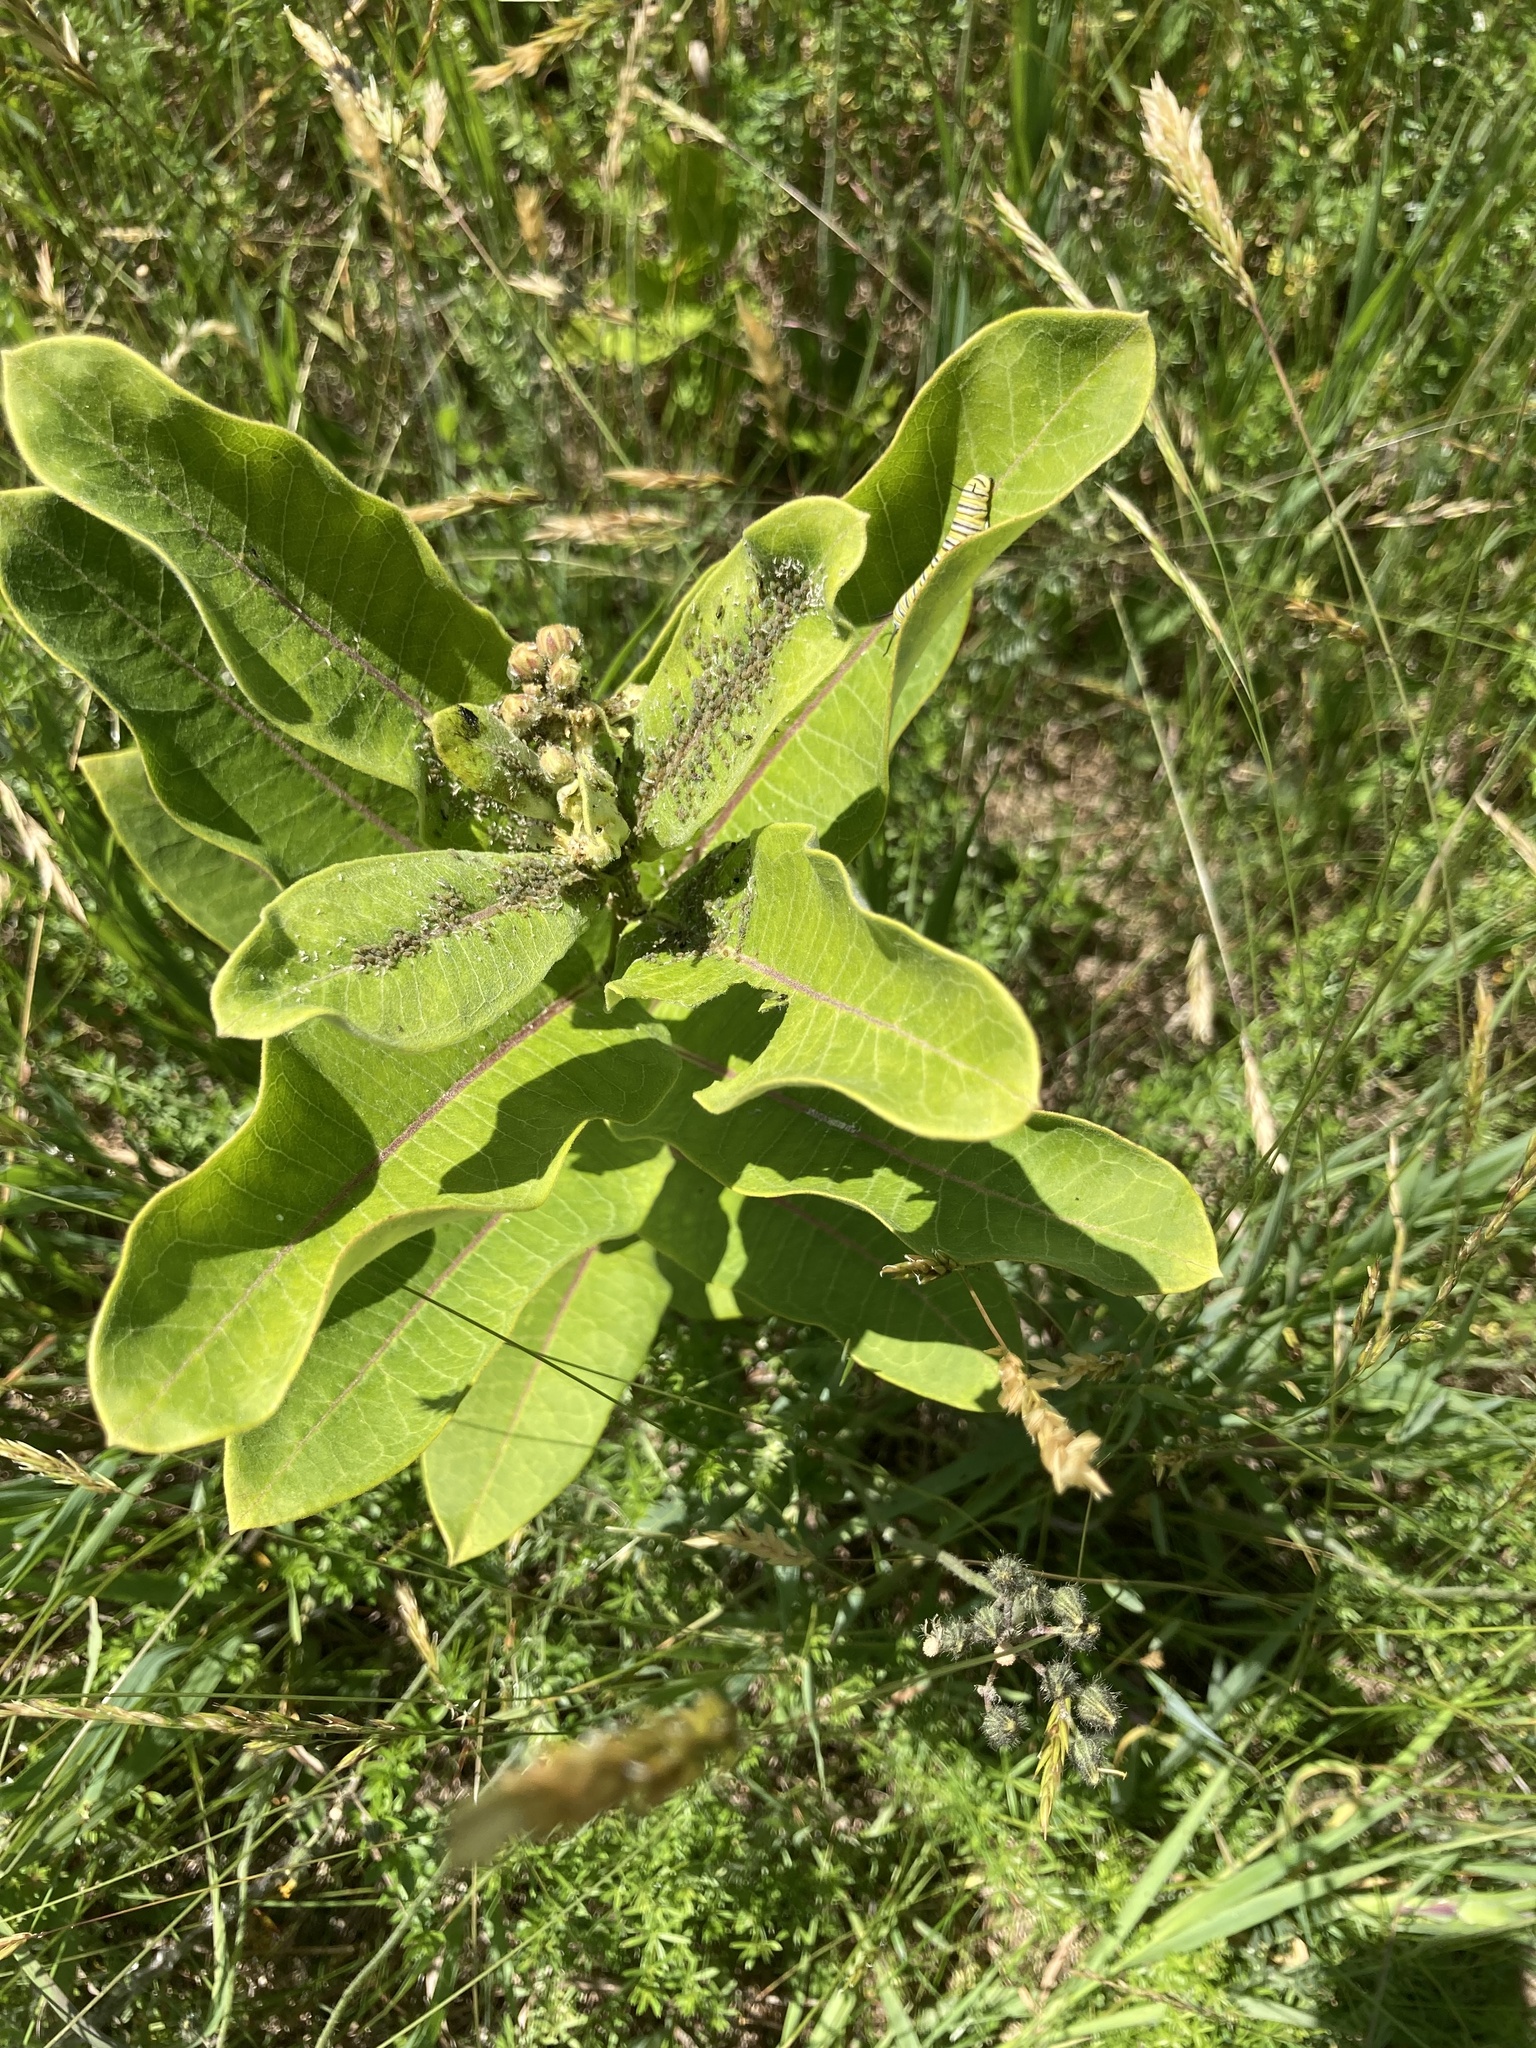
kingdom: Animalia
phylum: Arthropoda
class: Insecta
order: Lepidoptera
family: Nymphalidae
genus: Danaus
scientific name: Danaus plexippus
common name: Monarch
